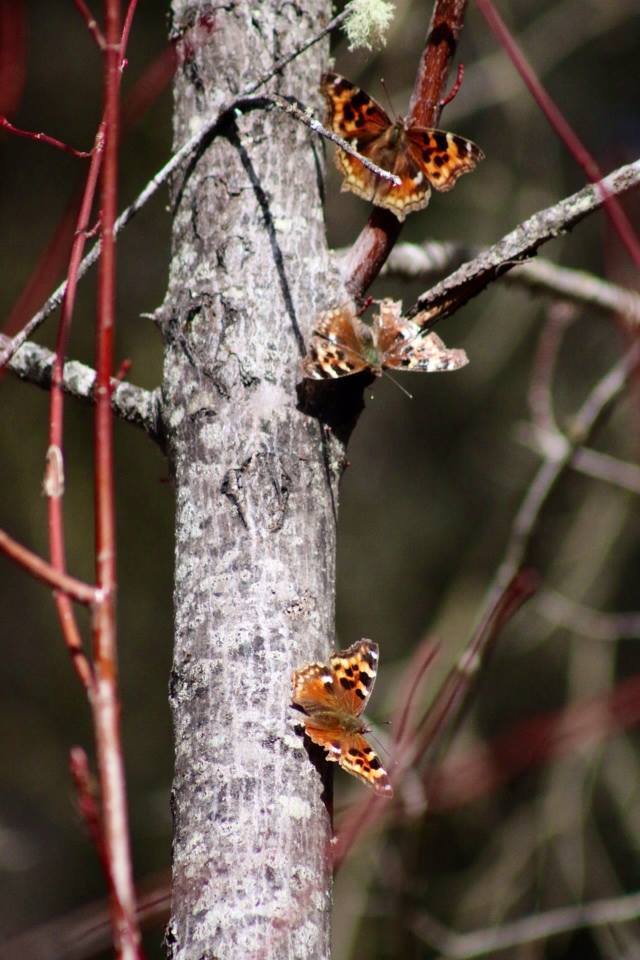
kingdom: Animalia
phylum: Arthropoda
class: Insecta
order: Lepidoptera
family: Nymphalidae
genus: Polygonia
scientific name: Polygonia vaualbum
